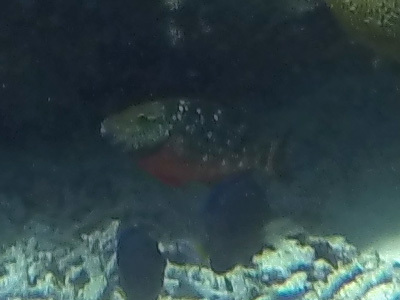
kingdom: Animalia
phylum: Chordata
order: Perciformes
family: Scaridae
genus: Sparisoma
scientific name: Sparisoma viride
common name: Stoplight parrotfish
